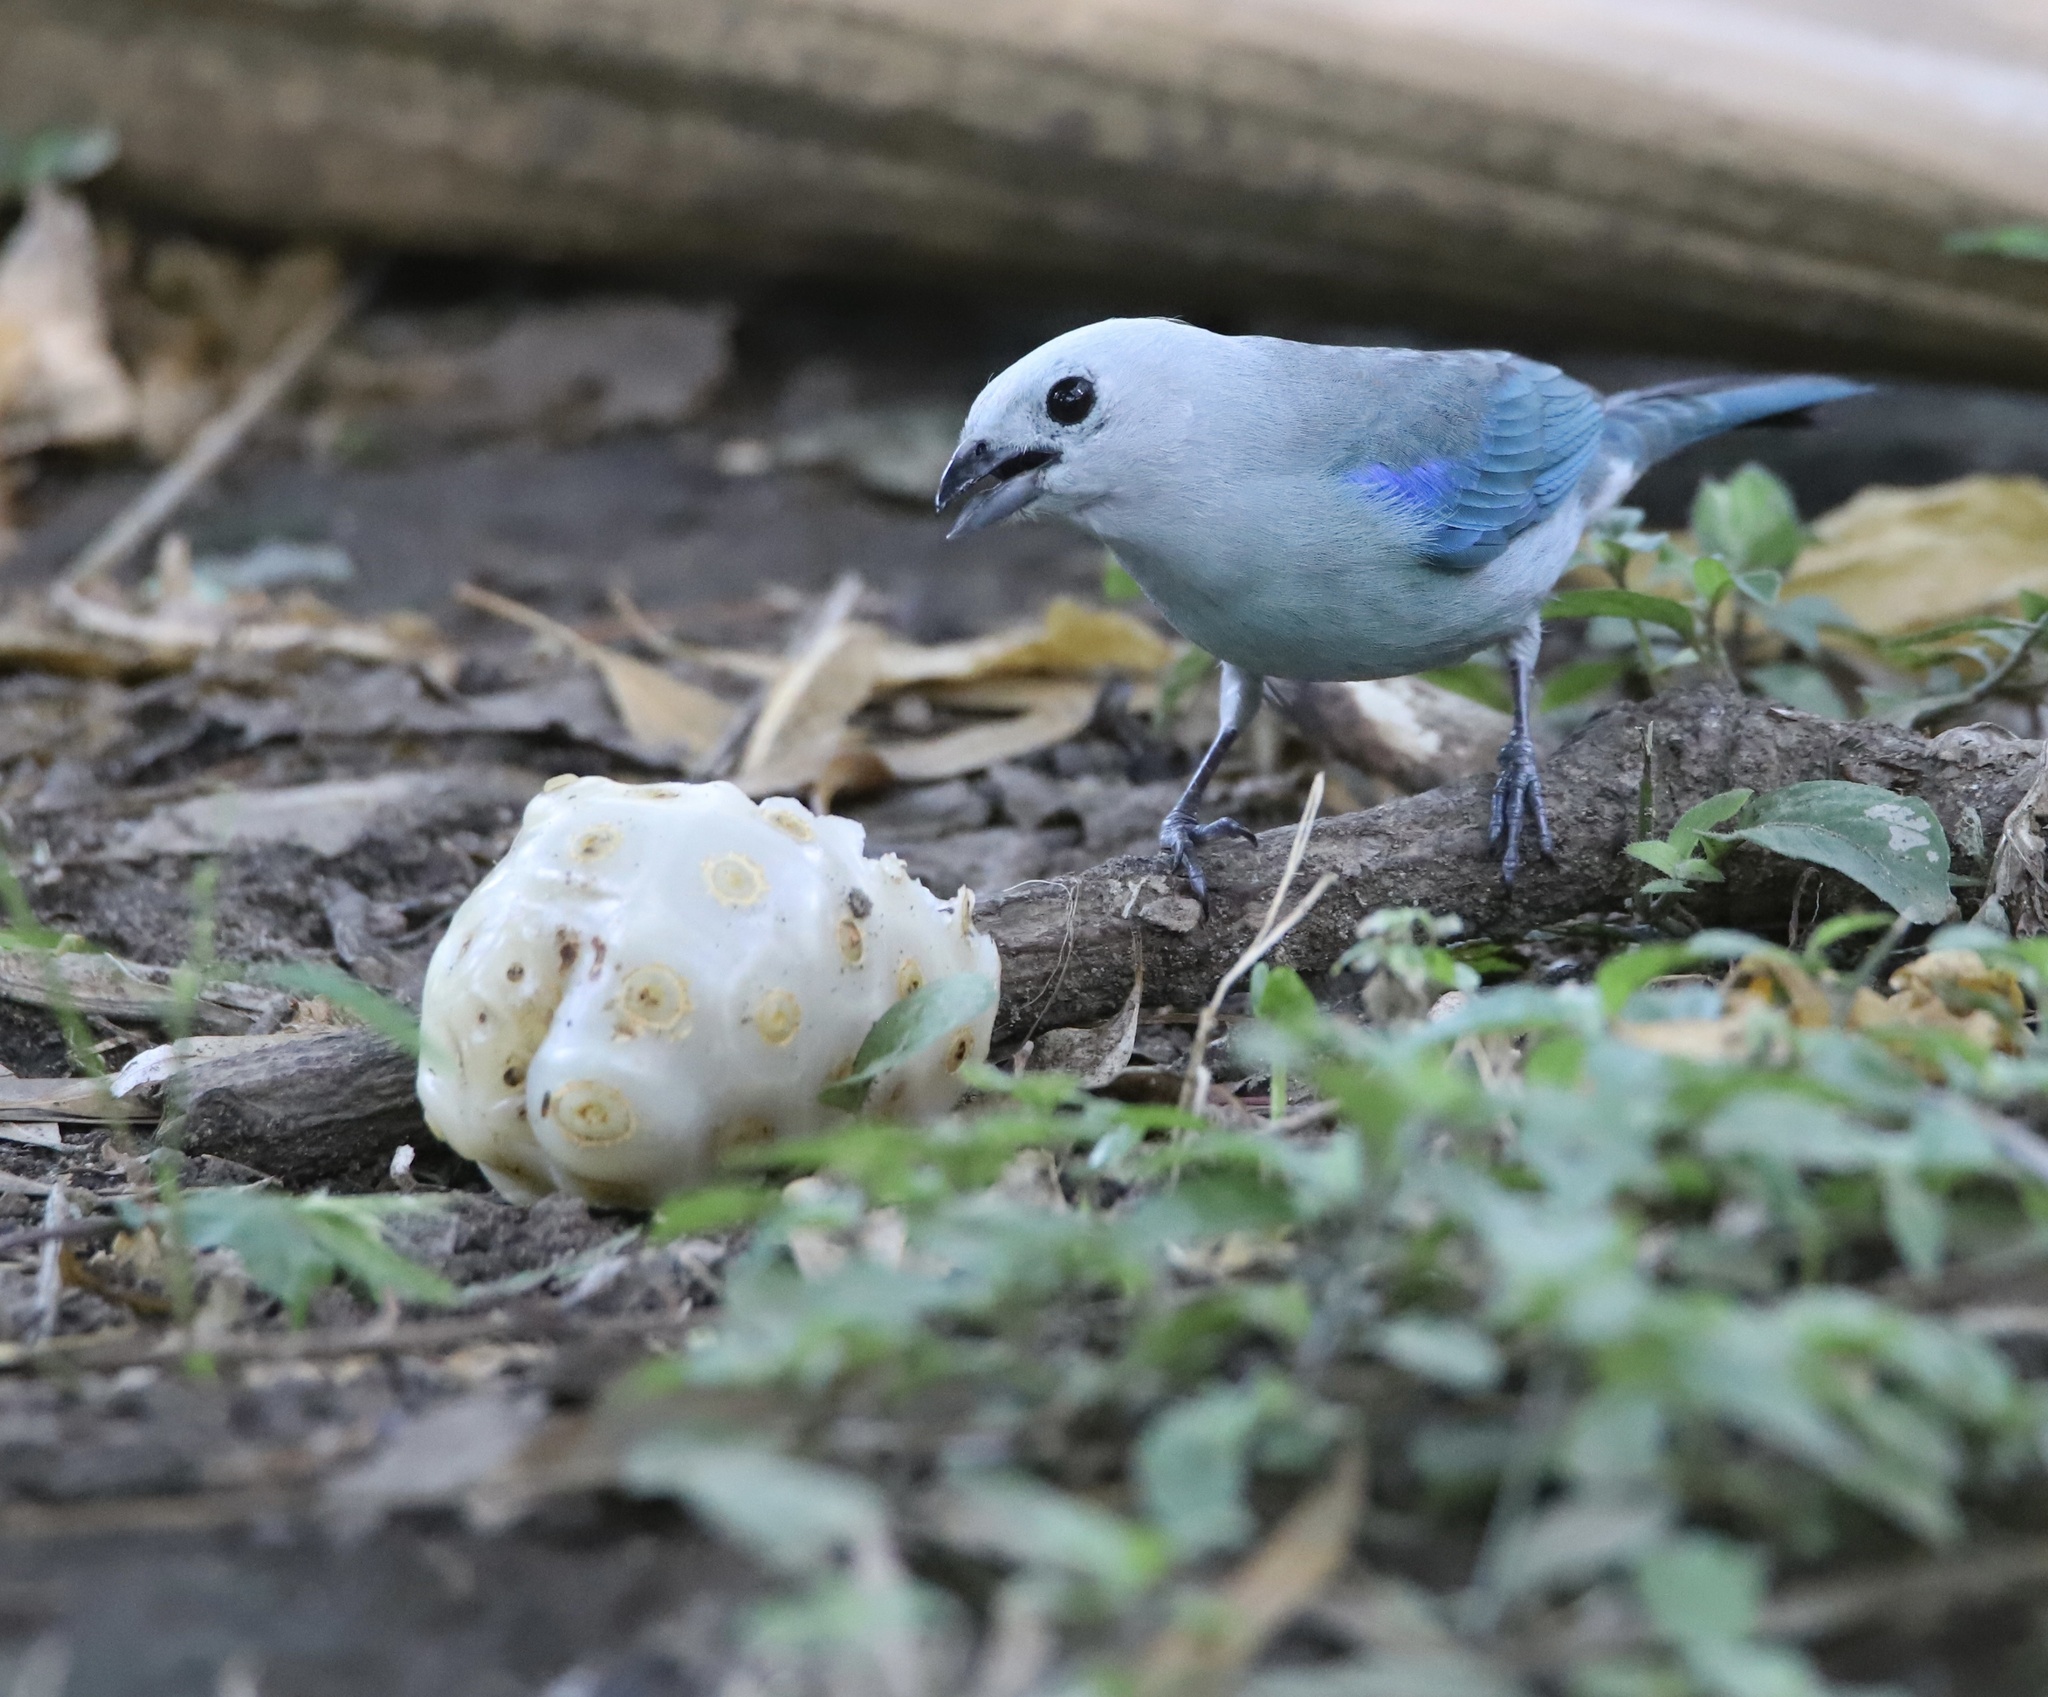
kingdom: Animalia
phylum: Chordata
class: Aves
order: Passeriformes
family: Thraupidae
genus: Thraupis
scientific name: Thraupis episcopus
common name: Blue-grey tanager
